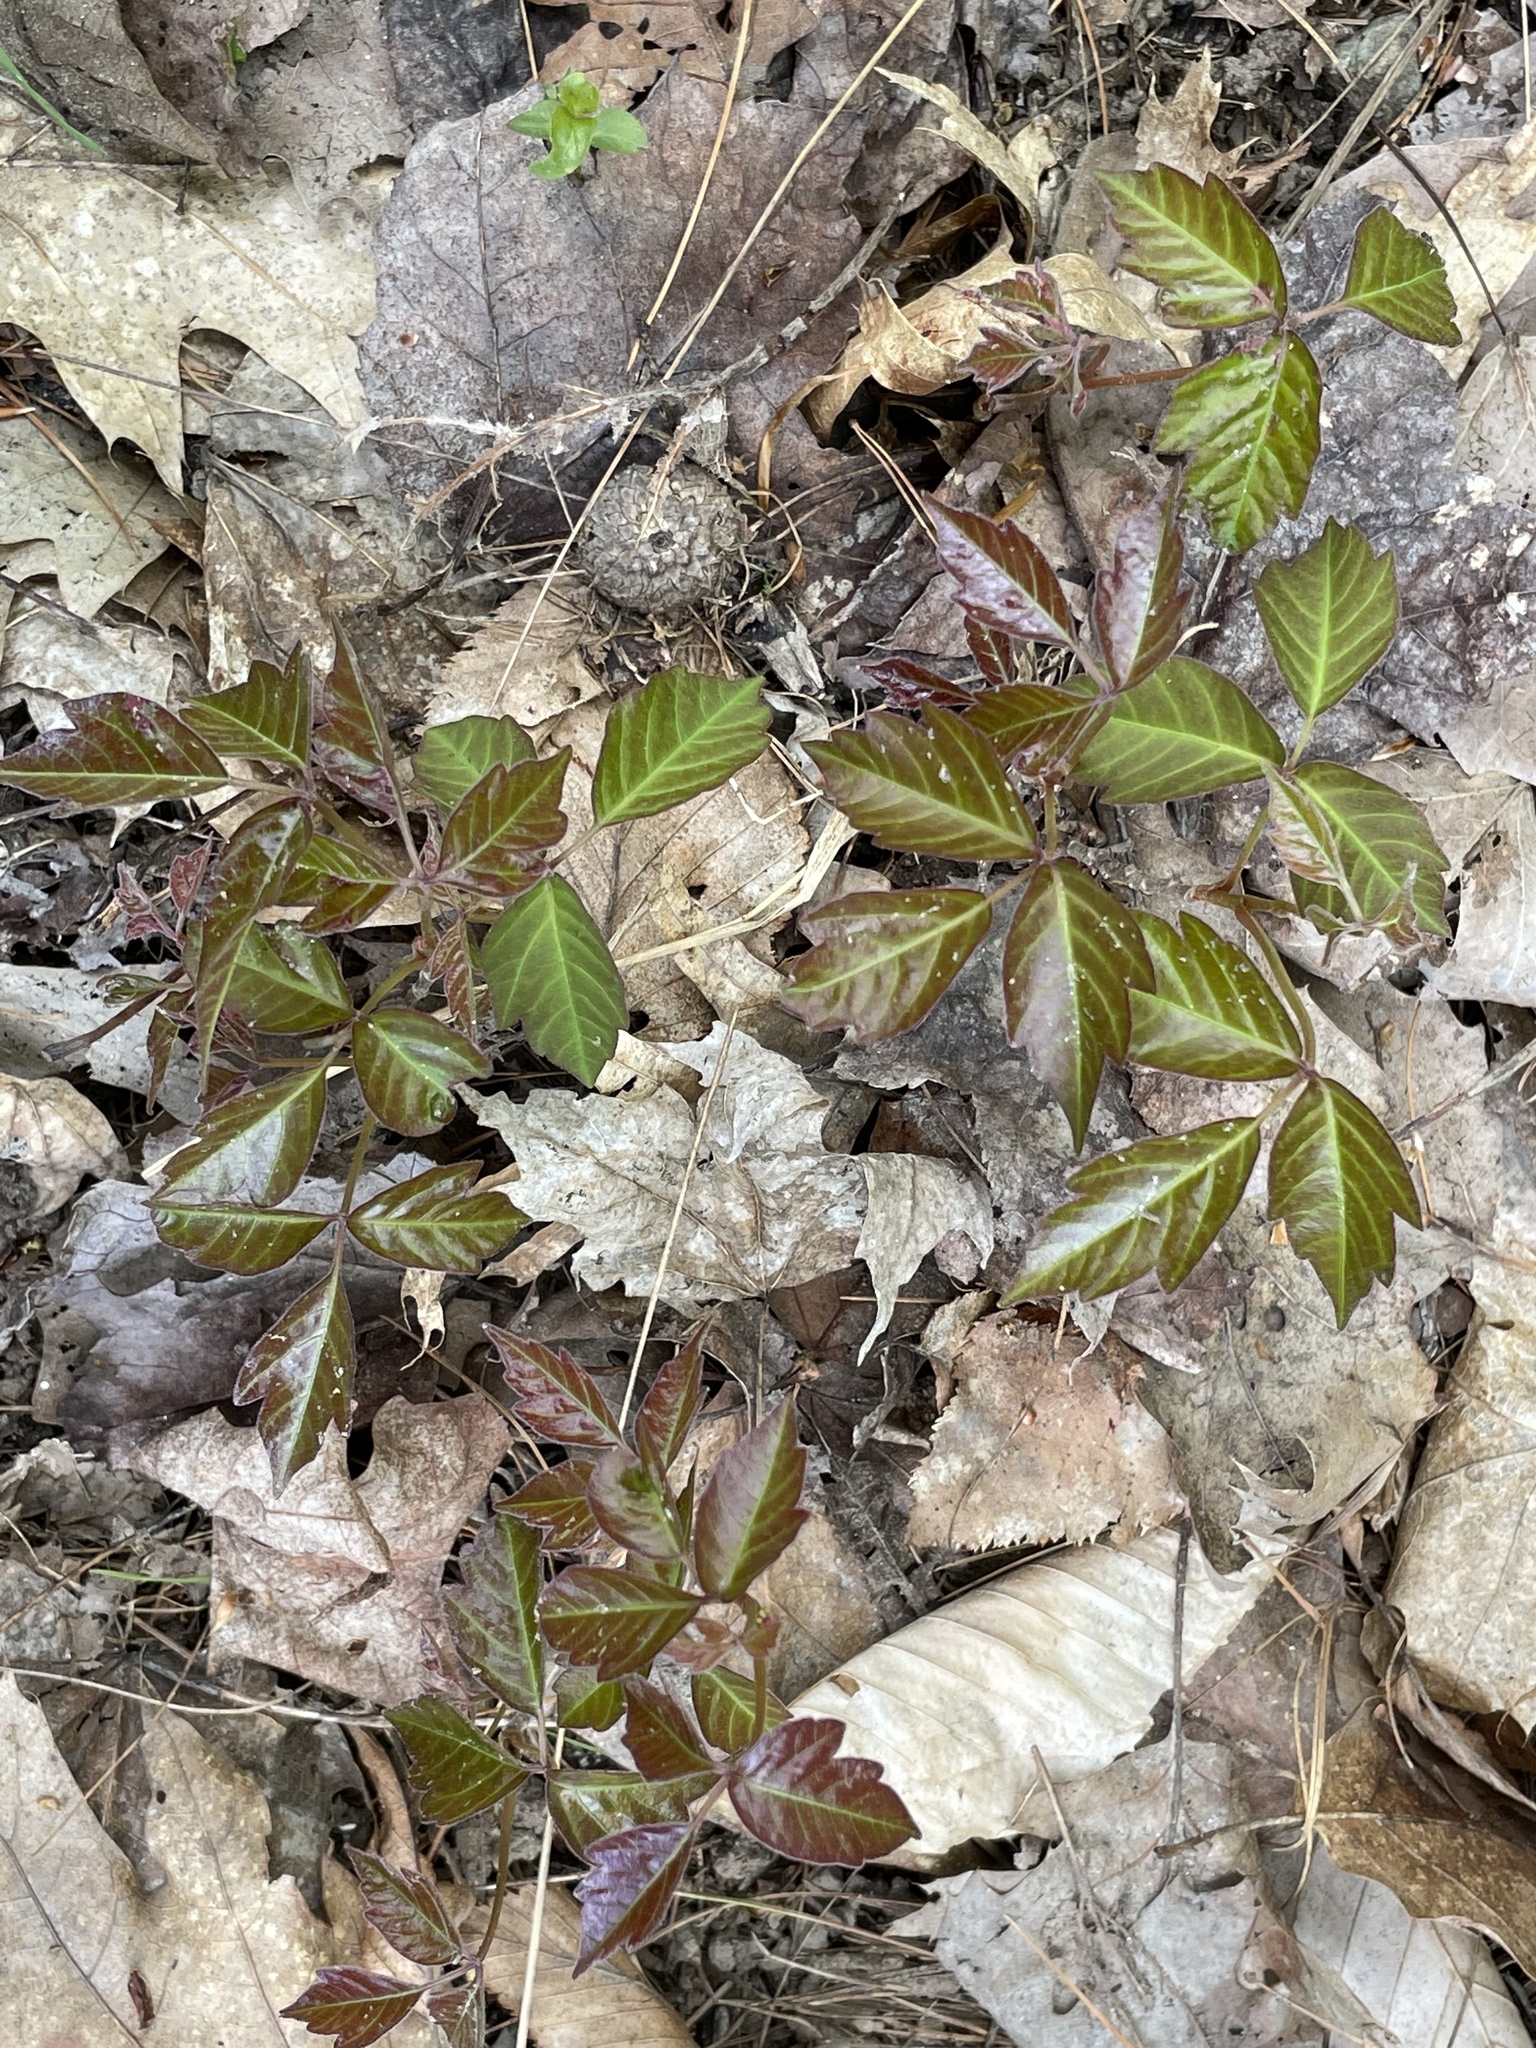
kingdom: Plantae
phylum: Tracheophyta
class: Magnoliopsida
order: Sapindales
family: Anacardiaceae
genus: Toxicodendron
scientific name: Toxicodendron radicans
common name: Poison ivy
